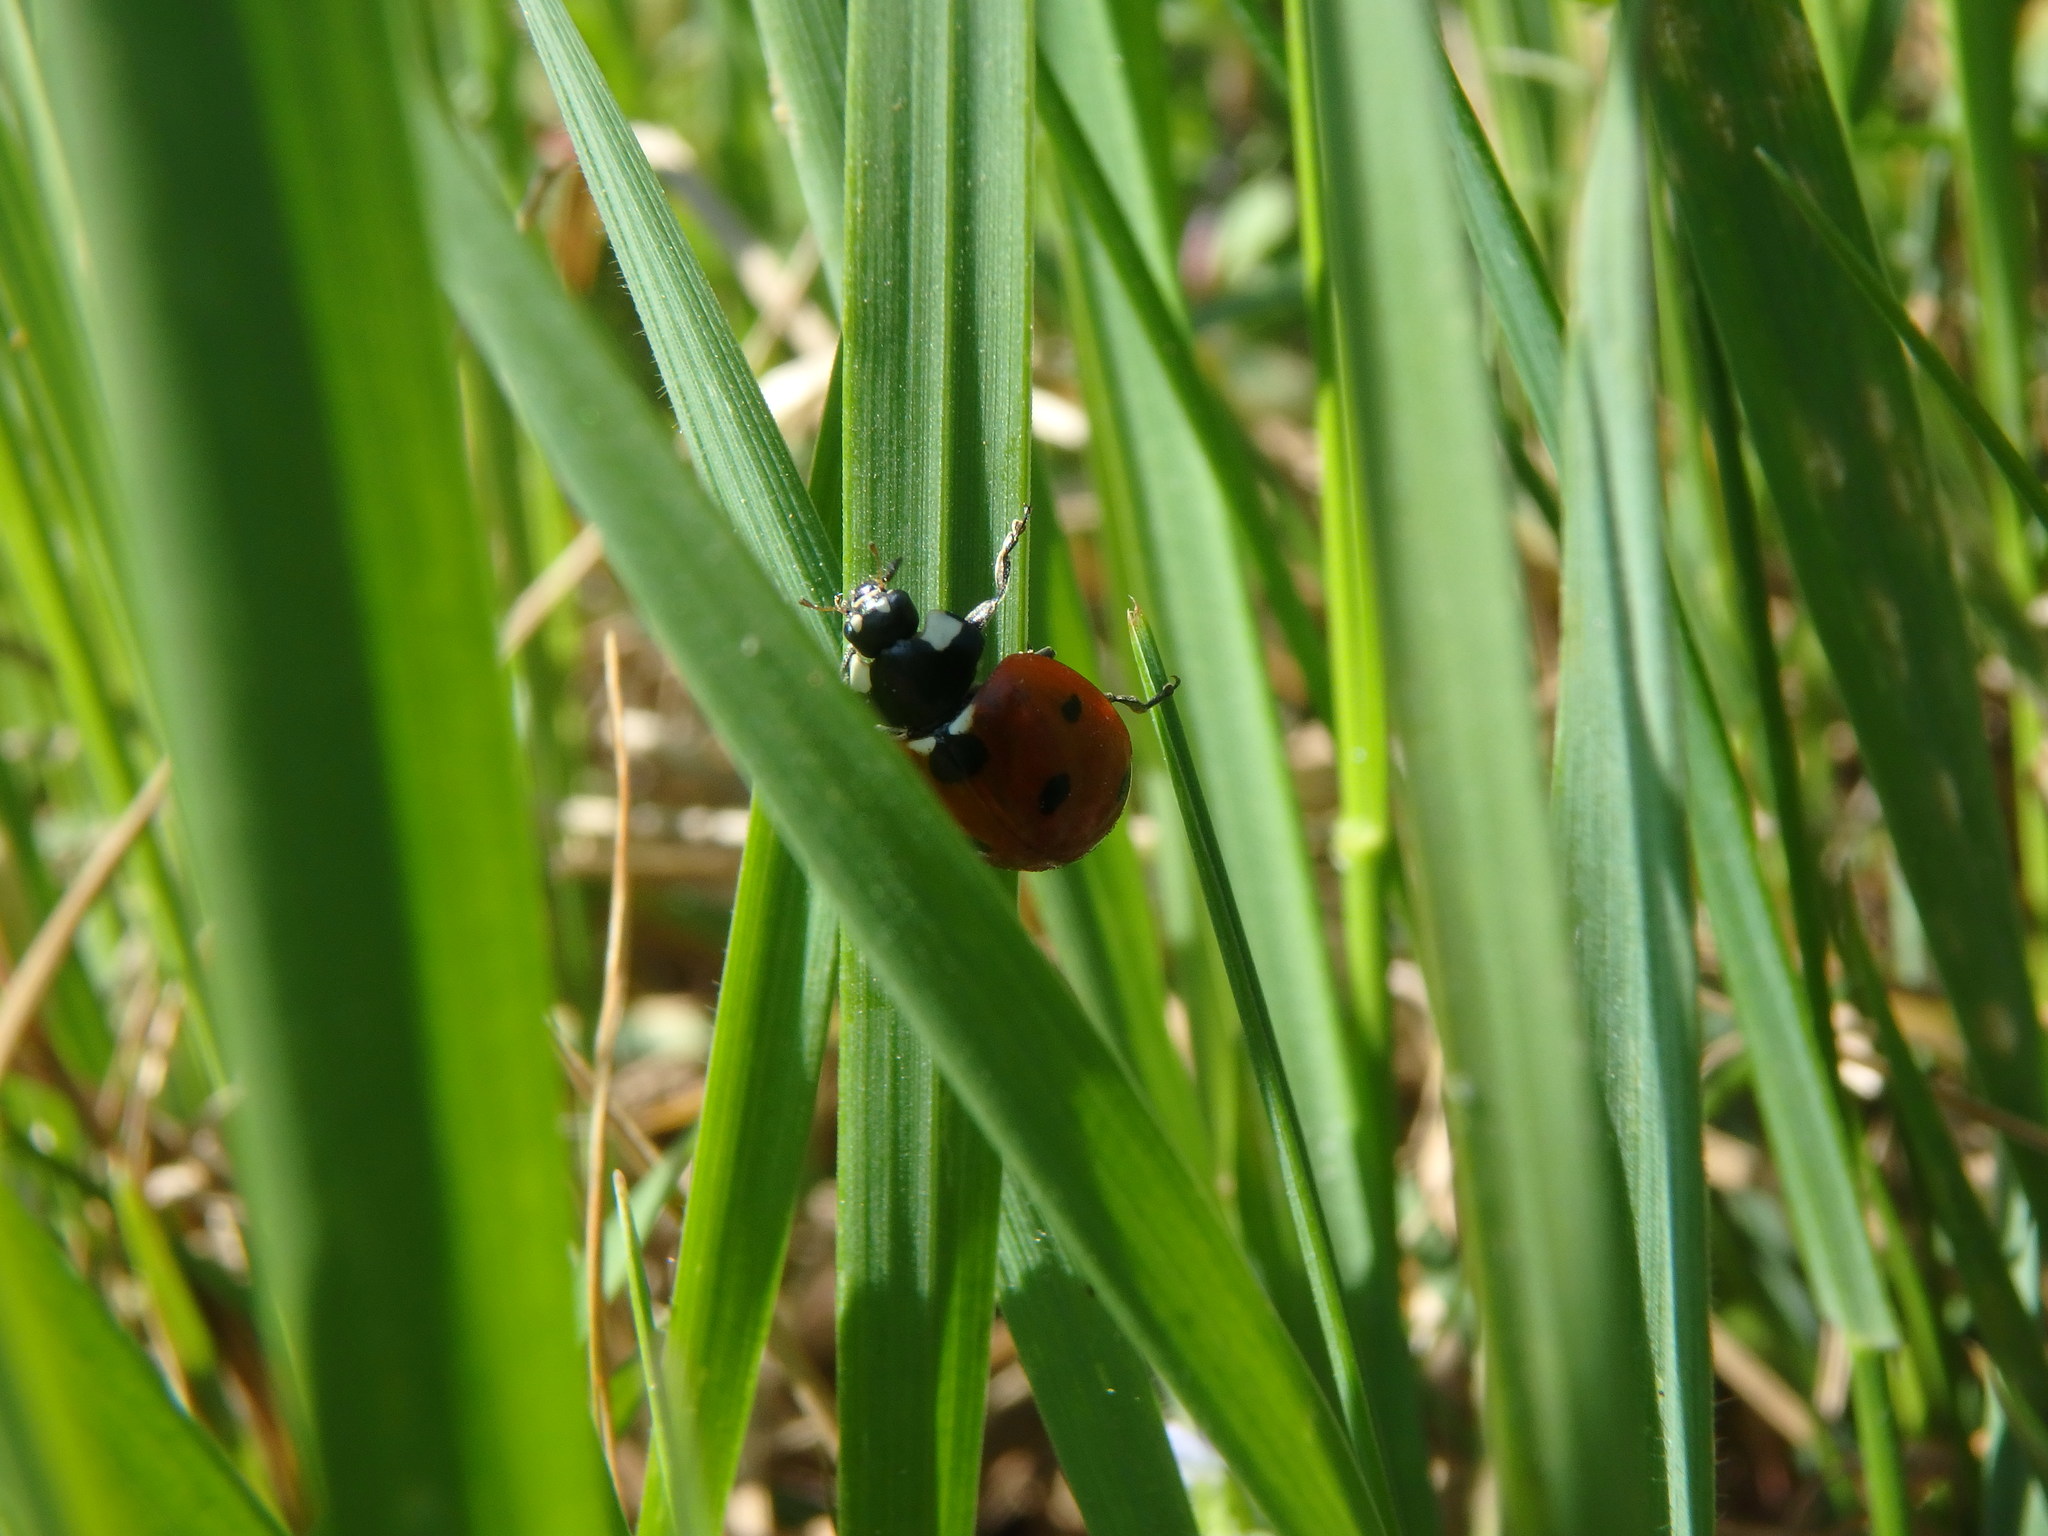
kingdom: Animalia
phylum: Arthropoda
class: Insecta
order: Coleoptera
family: Coccinellidae
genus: Coccinella
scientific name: Coccinella septempunctata
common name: Sevenspotted lady beetle
